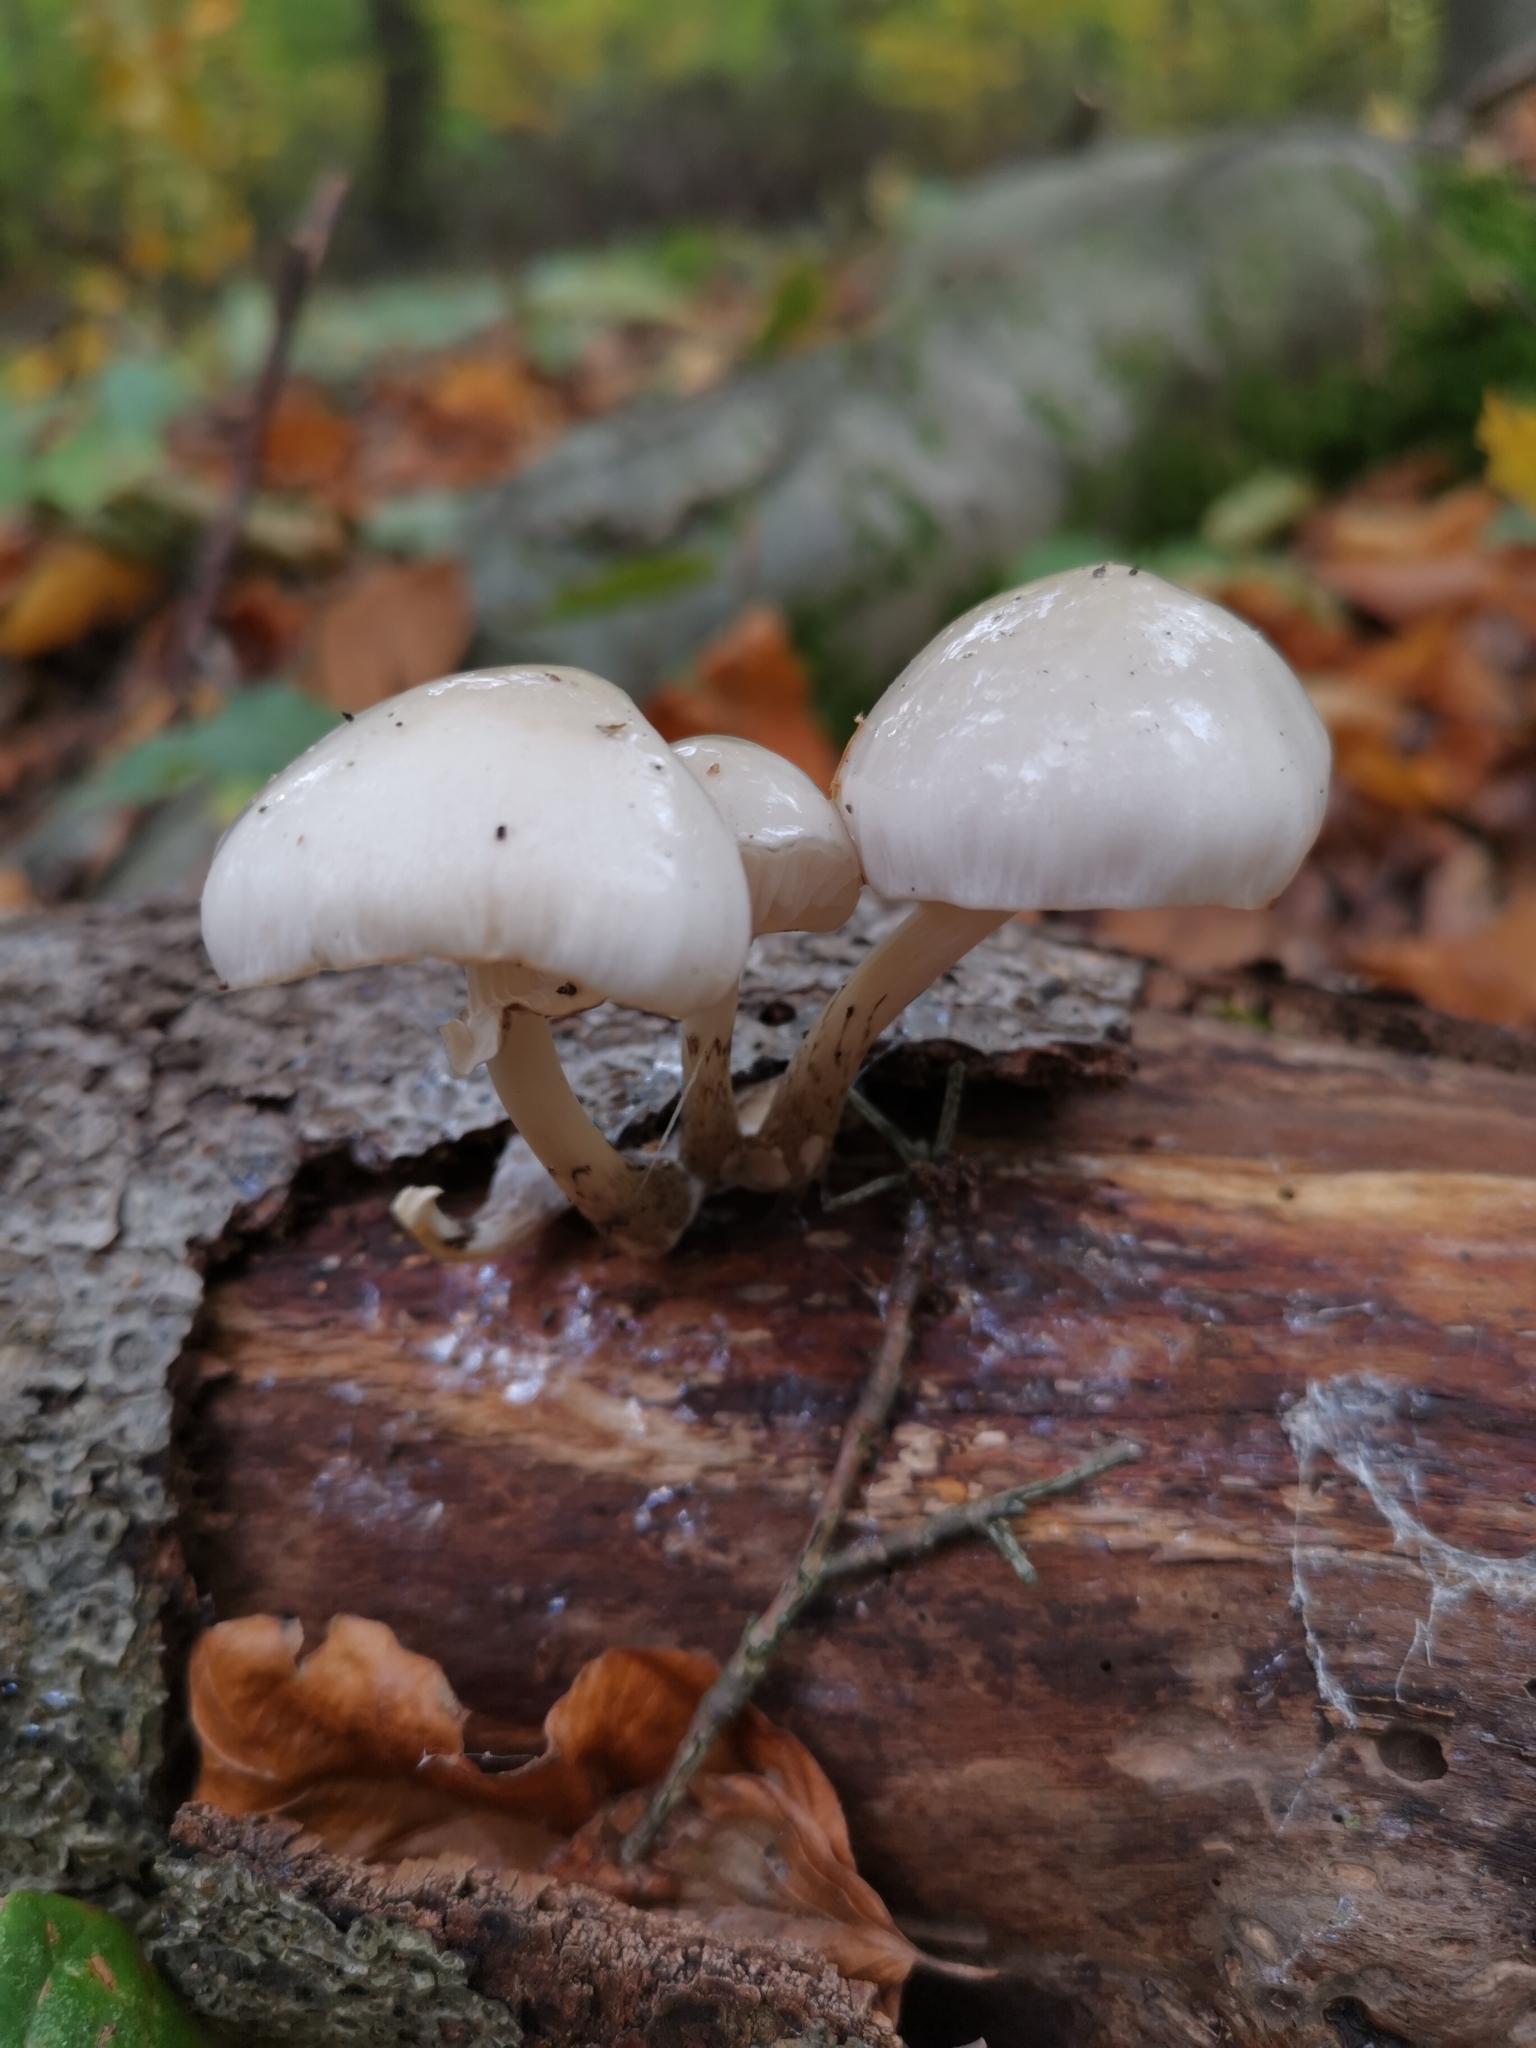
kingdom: Fungi
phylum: Basidiomycota
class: Agaricomycetes
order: Agaricales
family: Physalacriaceae
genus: Mucidula
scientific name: Mucidula mucida
